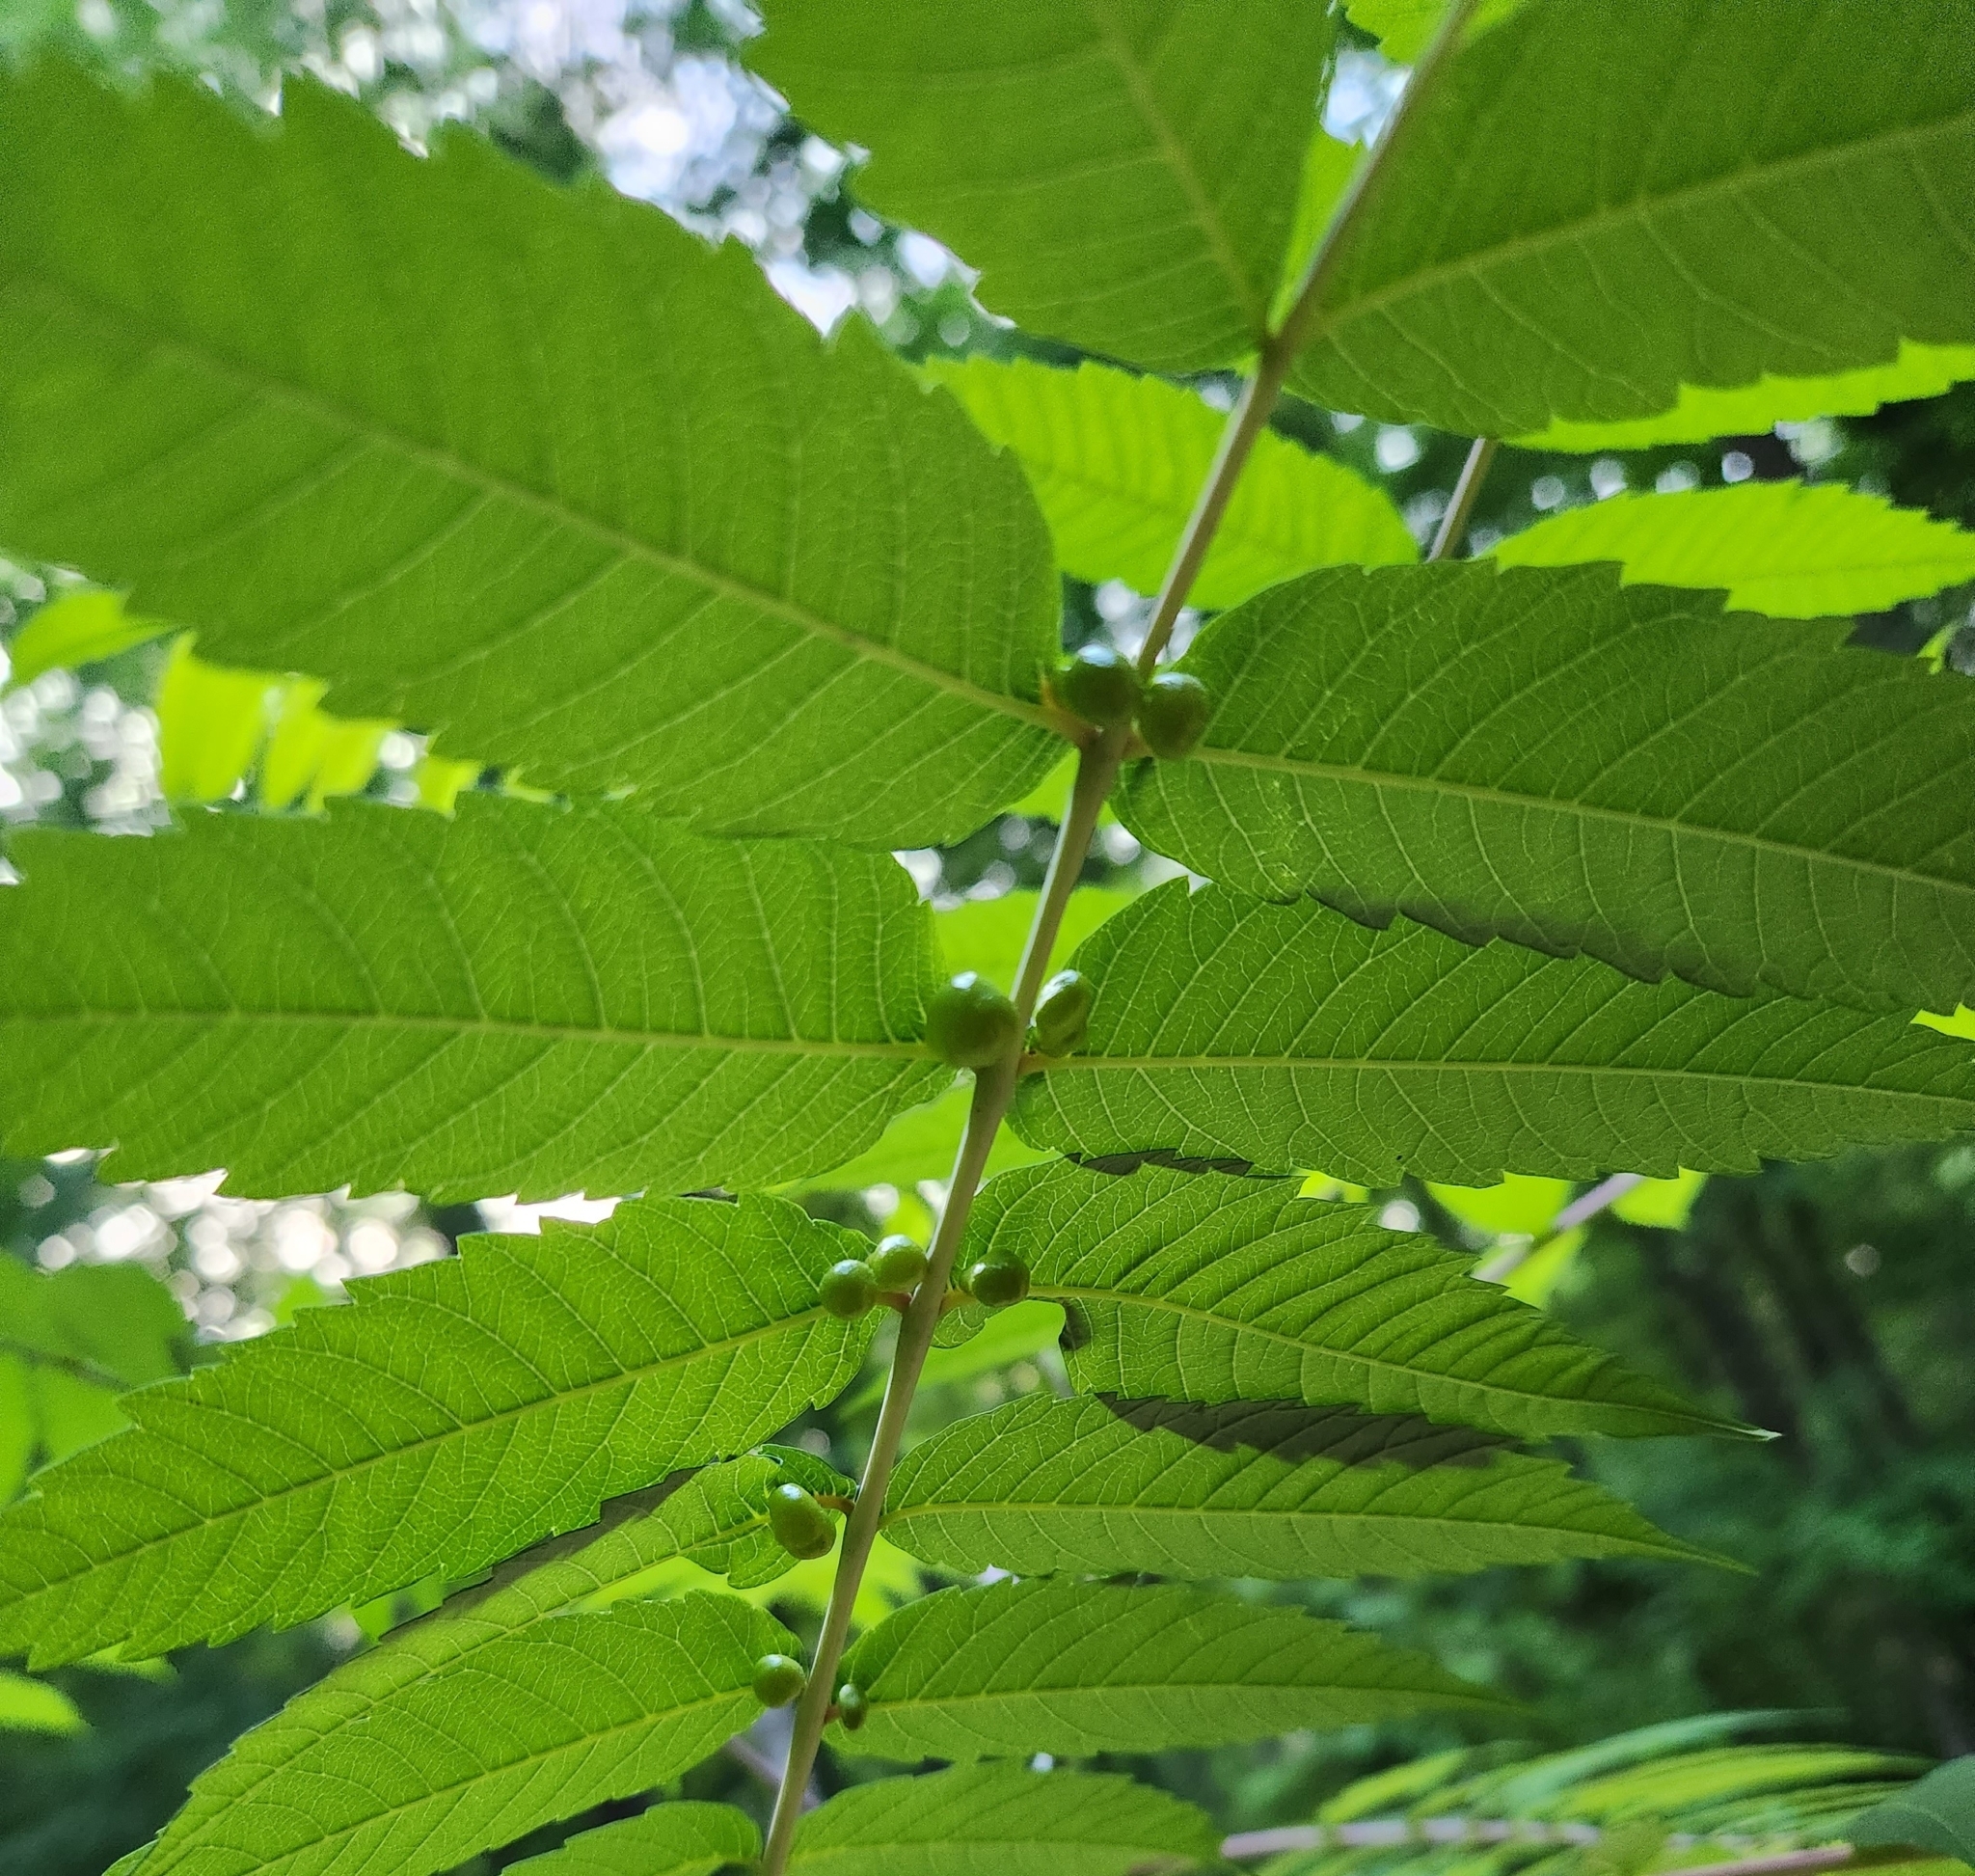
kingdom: Animalia
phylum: Arthropoda
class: Insecta
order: Hemiptera
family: Aphididae
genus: Melaphis
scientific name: Melaphis rhois
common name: Sumac gall aphid
